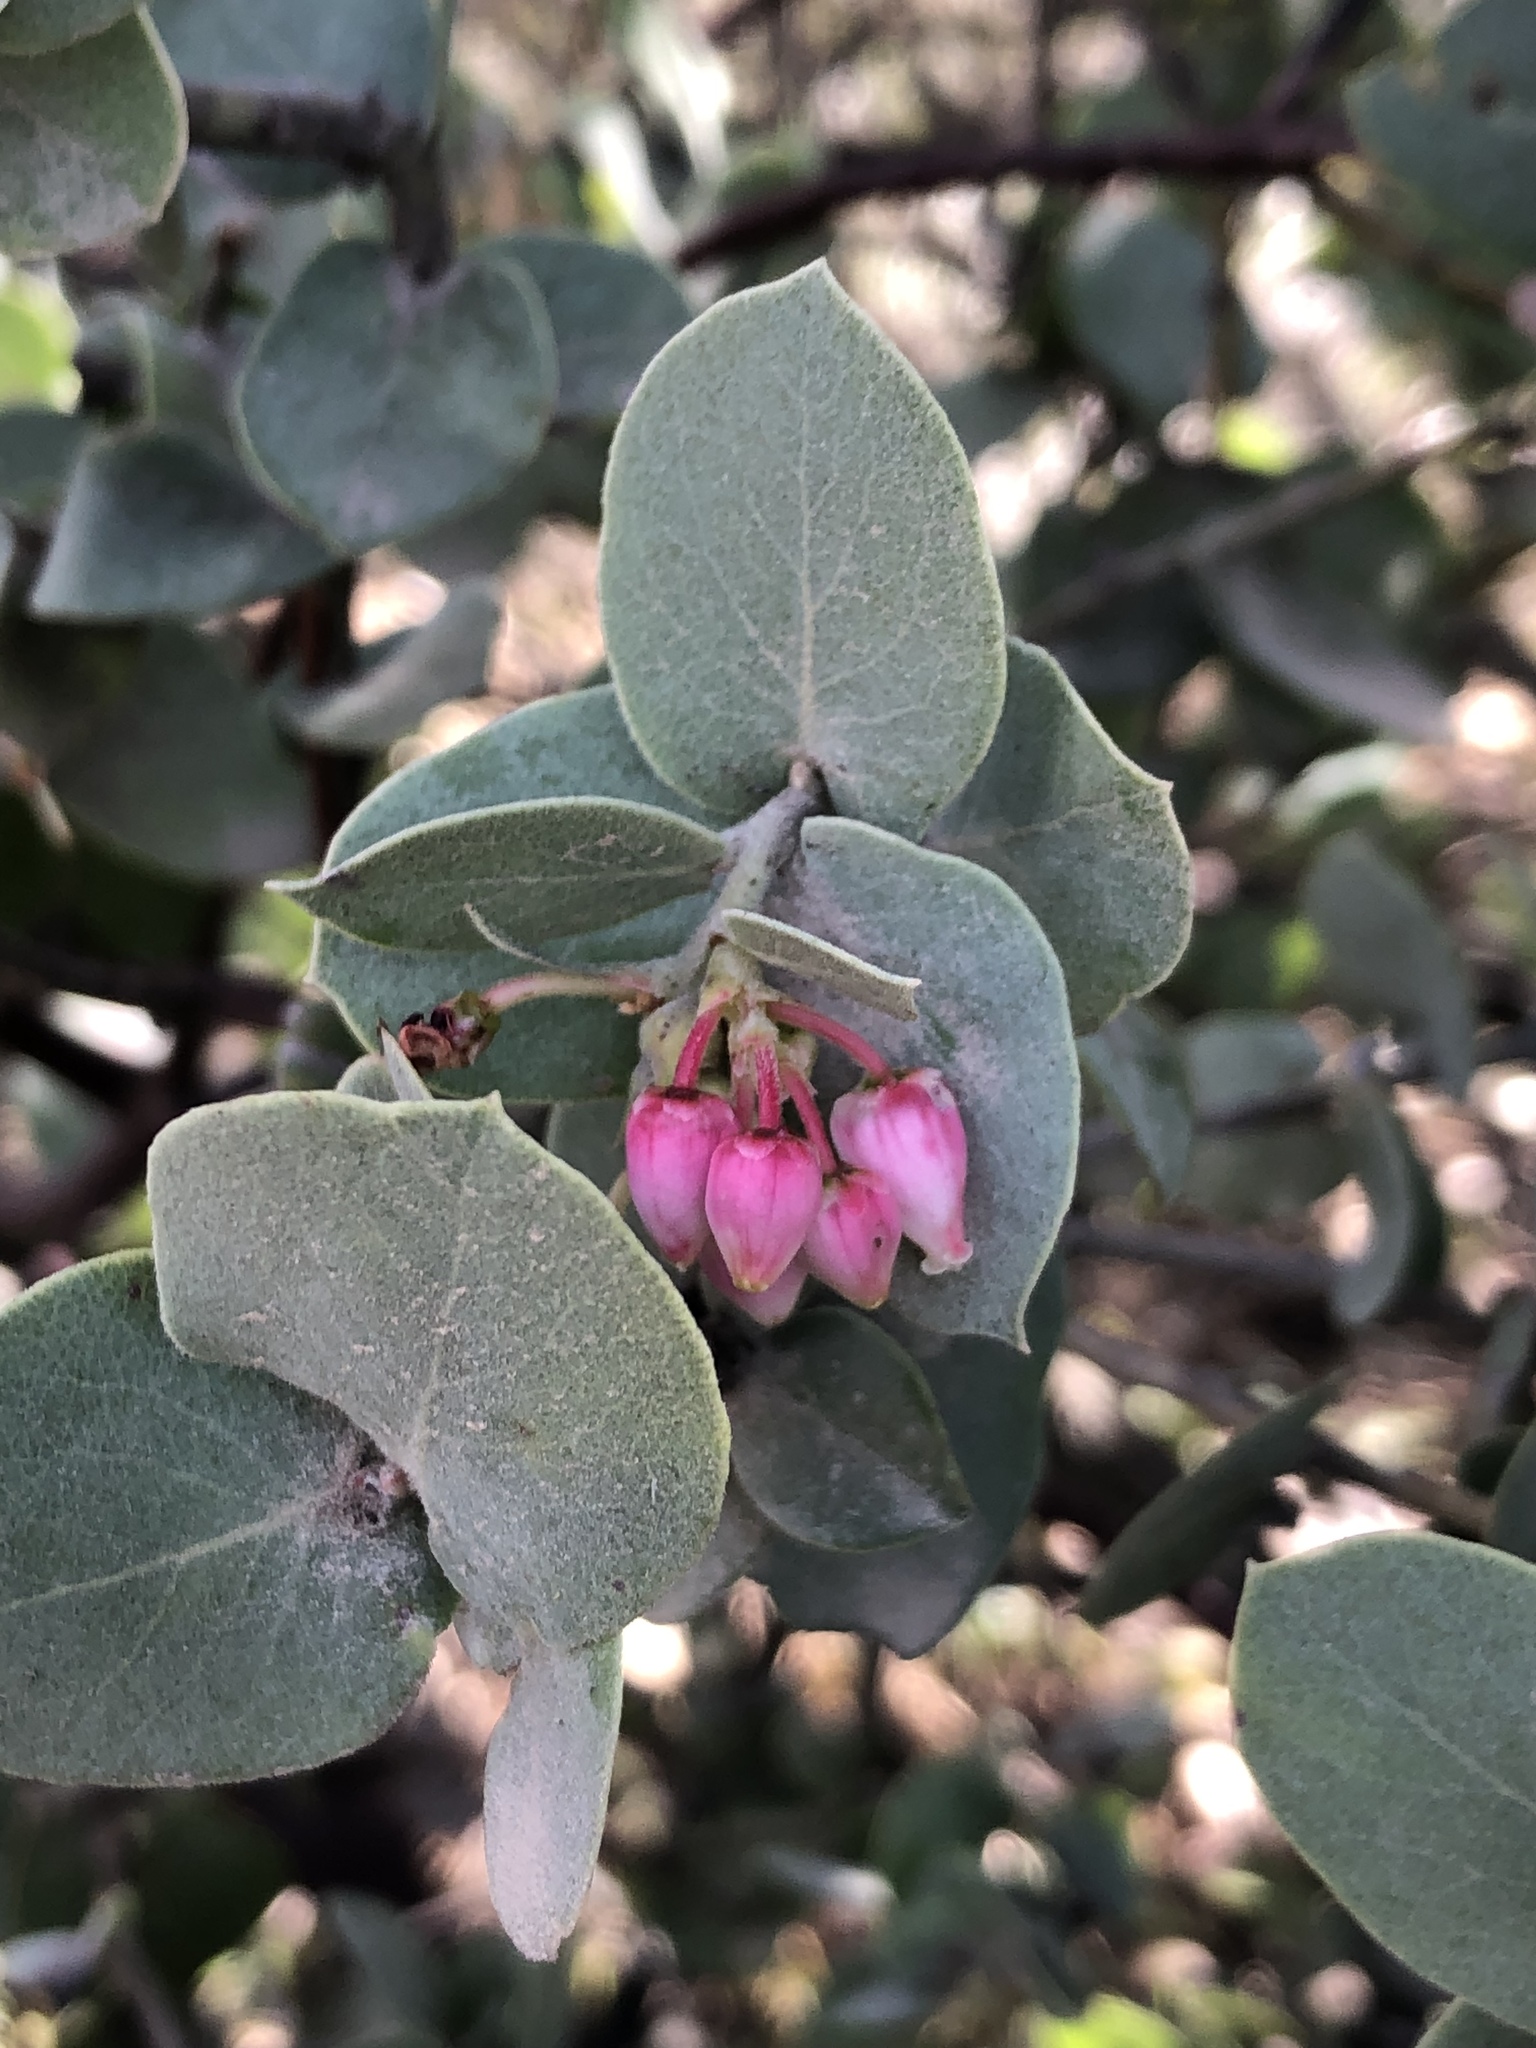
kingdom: Plantae
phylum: Tracheophyta
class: Magnoliopsida
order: Ericales
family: Ericaceae
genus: Arctostaphylos
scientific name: Arctostaphylos luciana
